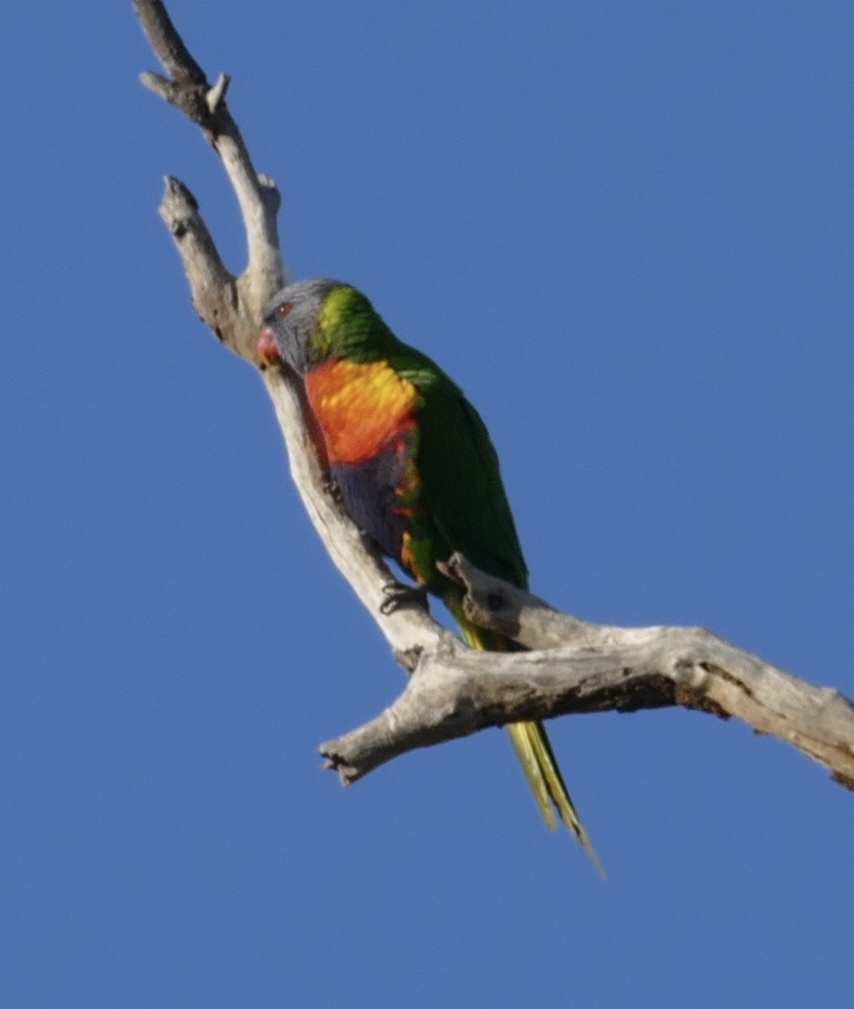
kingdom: Animalia
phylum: Chordata
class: Aves
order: Psittaciformes
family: Psittacidae
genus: Trichoglossus
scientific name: Trichoglossus haematodus
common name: Coconut lorikeet
